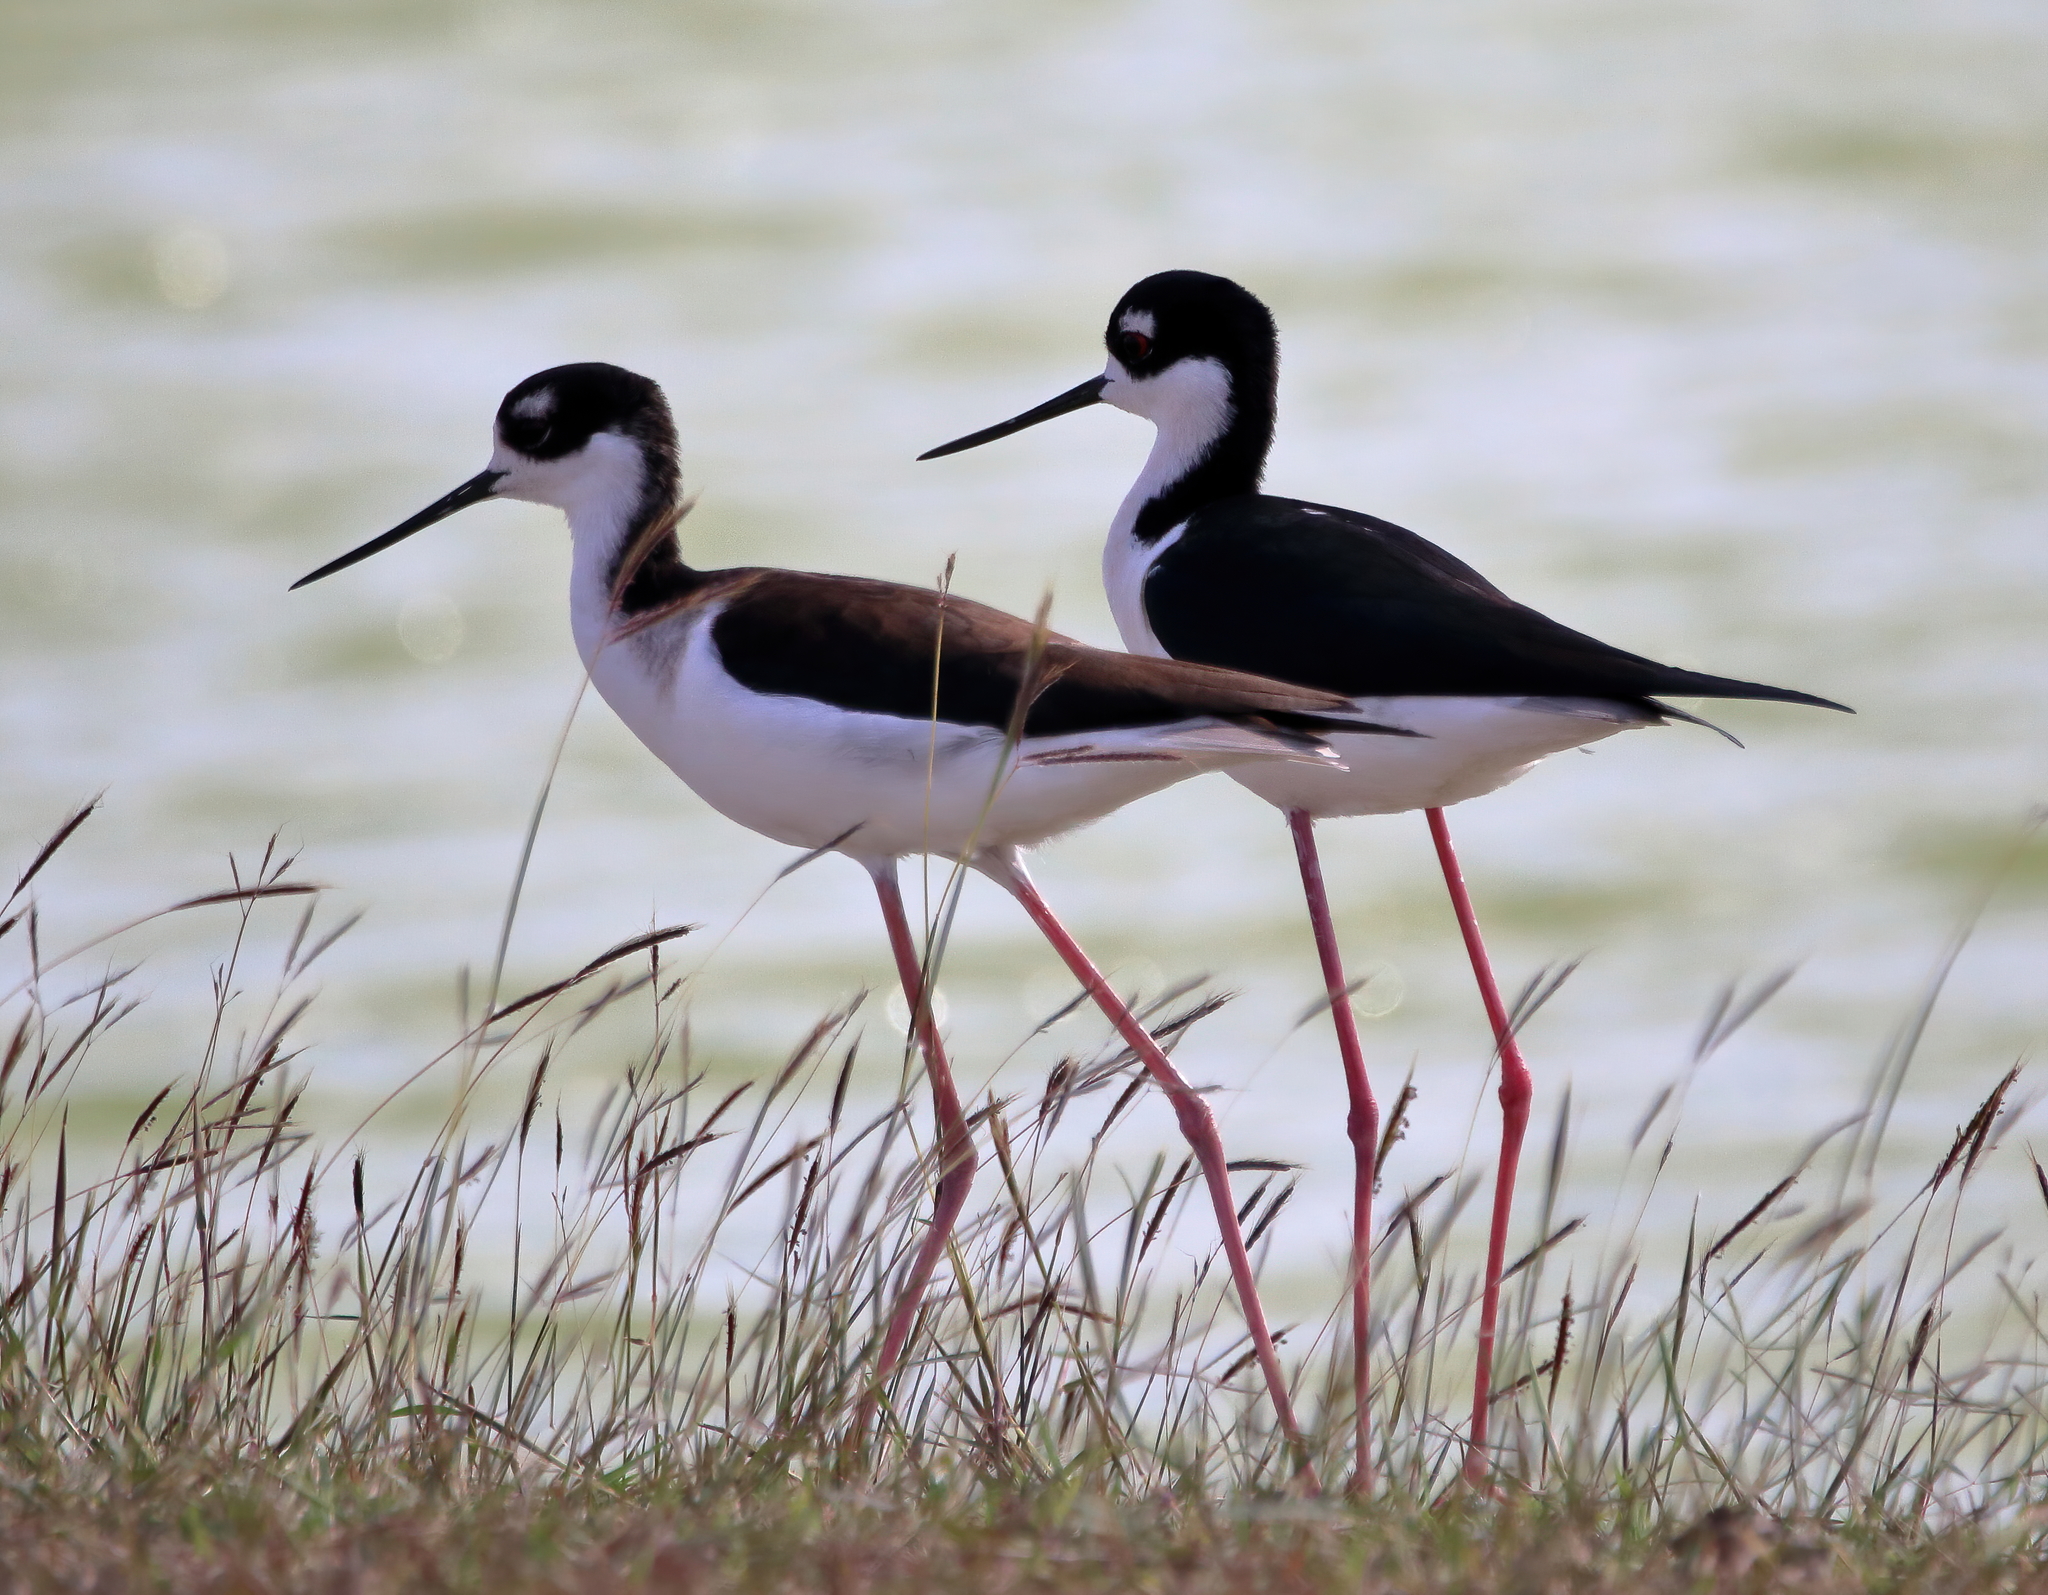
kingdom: Animalia
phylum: Chordata
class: Aves
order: Charadriiformes
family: Recurvirostridae
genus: Himantopus
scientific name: Himantopus mexicanus
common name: Black-necked stilt
